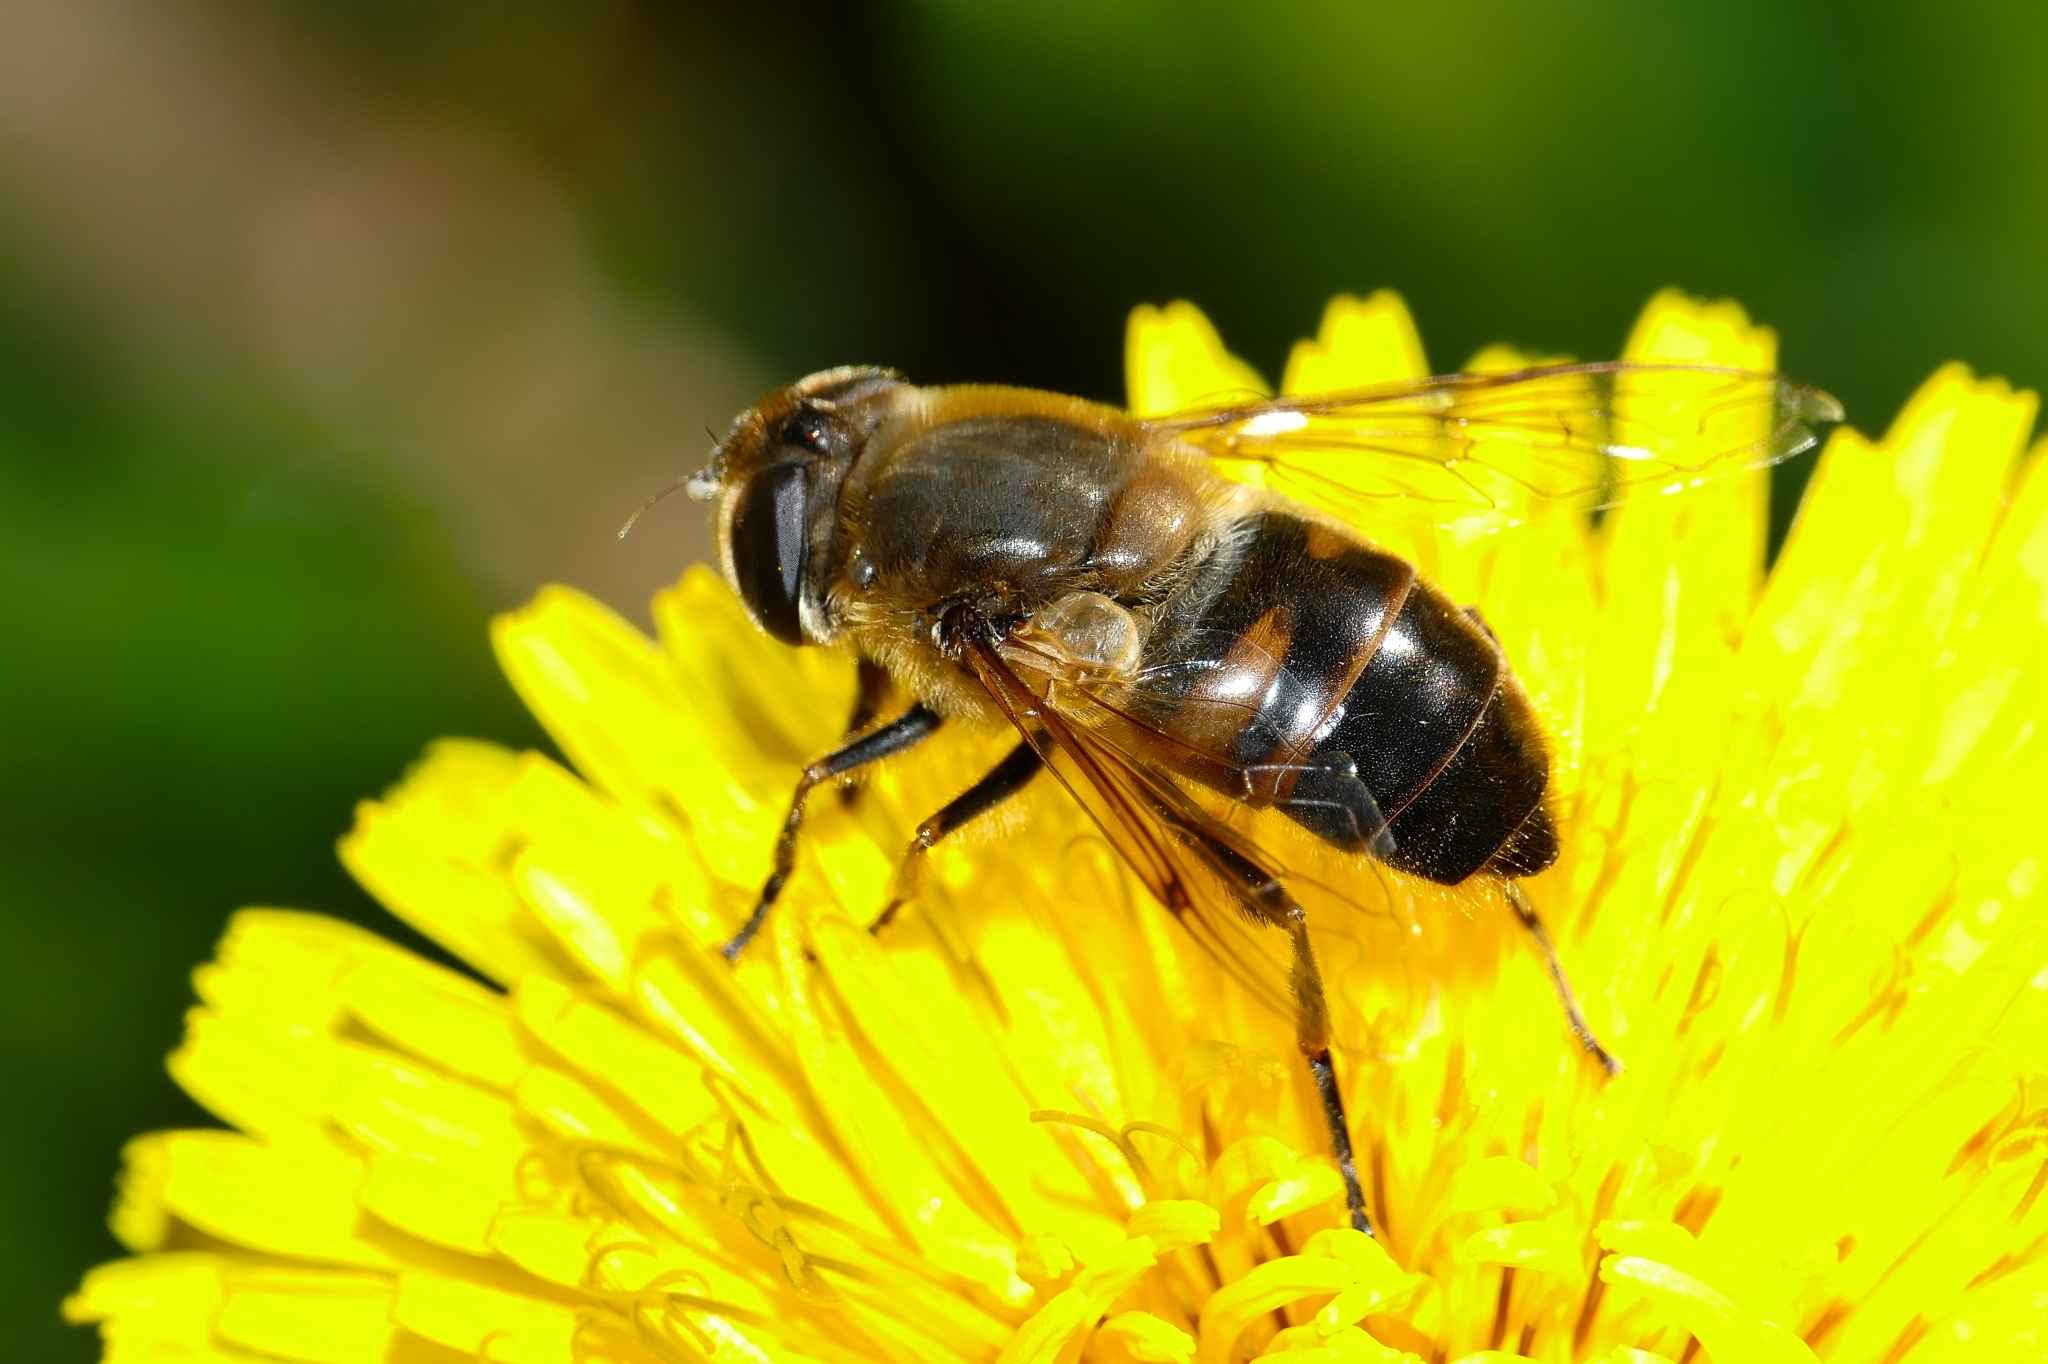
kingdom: Animalia
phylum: Arthropoda
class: Insecta
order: Diptera
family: Syrphidae
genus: Eristalis
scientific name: Eristalis tenax
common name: Drone fly
